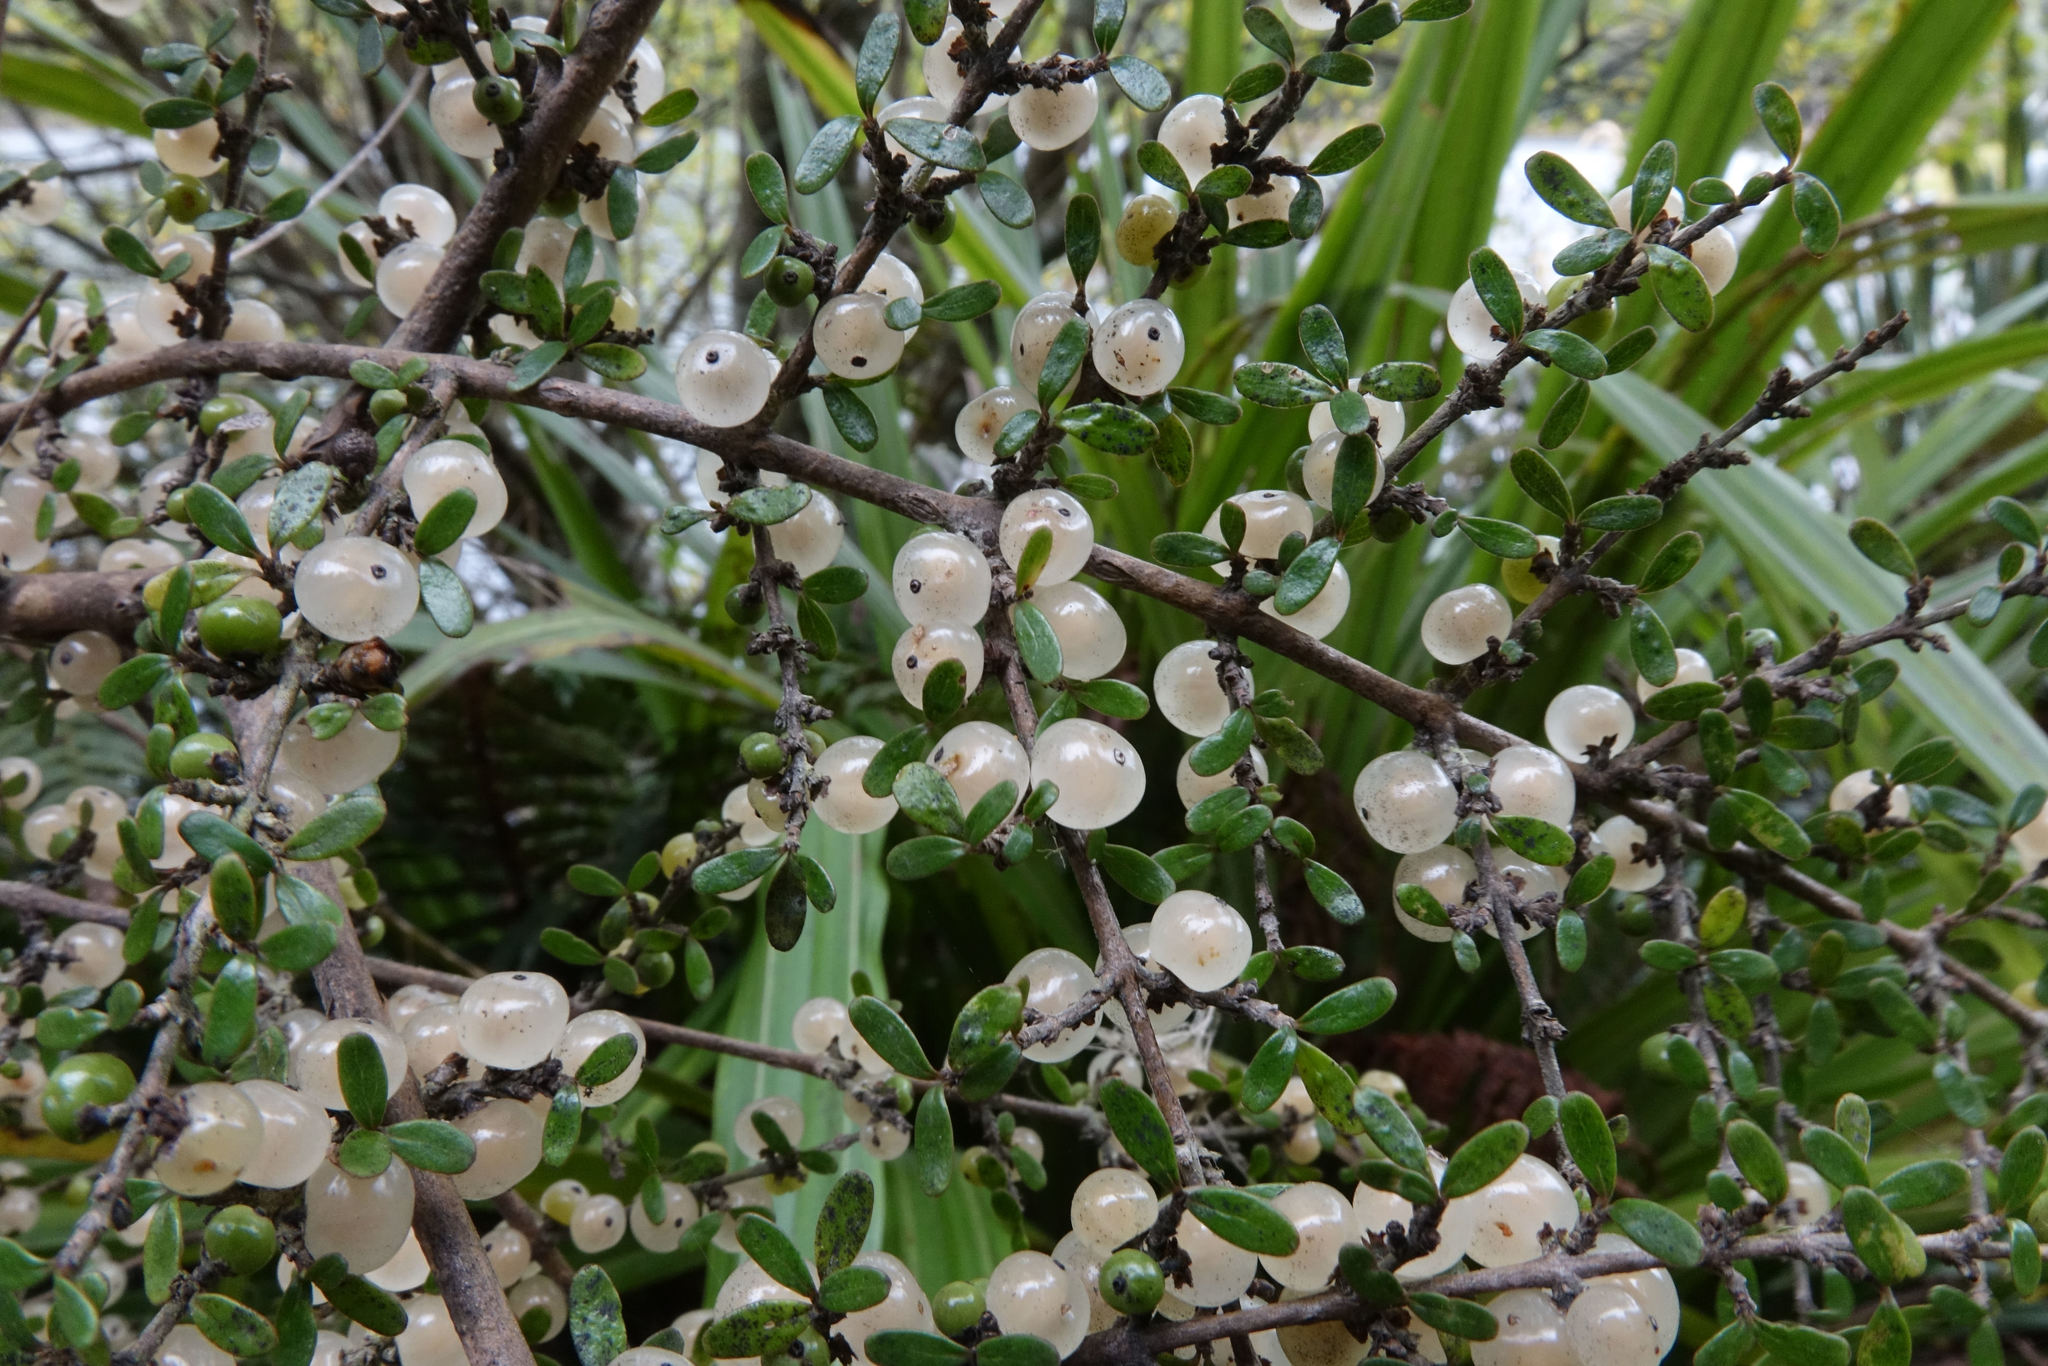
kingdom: Plantae
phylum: Tracheophyta
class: Magnoliopsida
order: Gentianales
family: Rubiaceae
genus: Coprosma
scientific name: Coprosma dumosa
